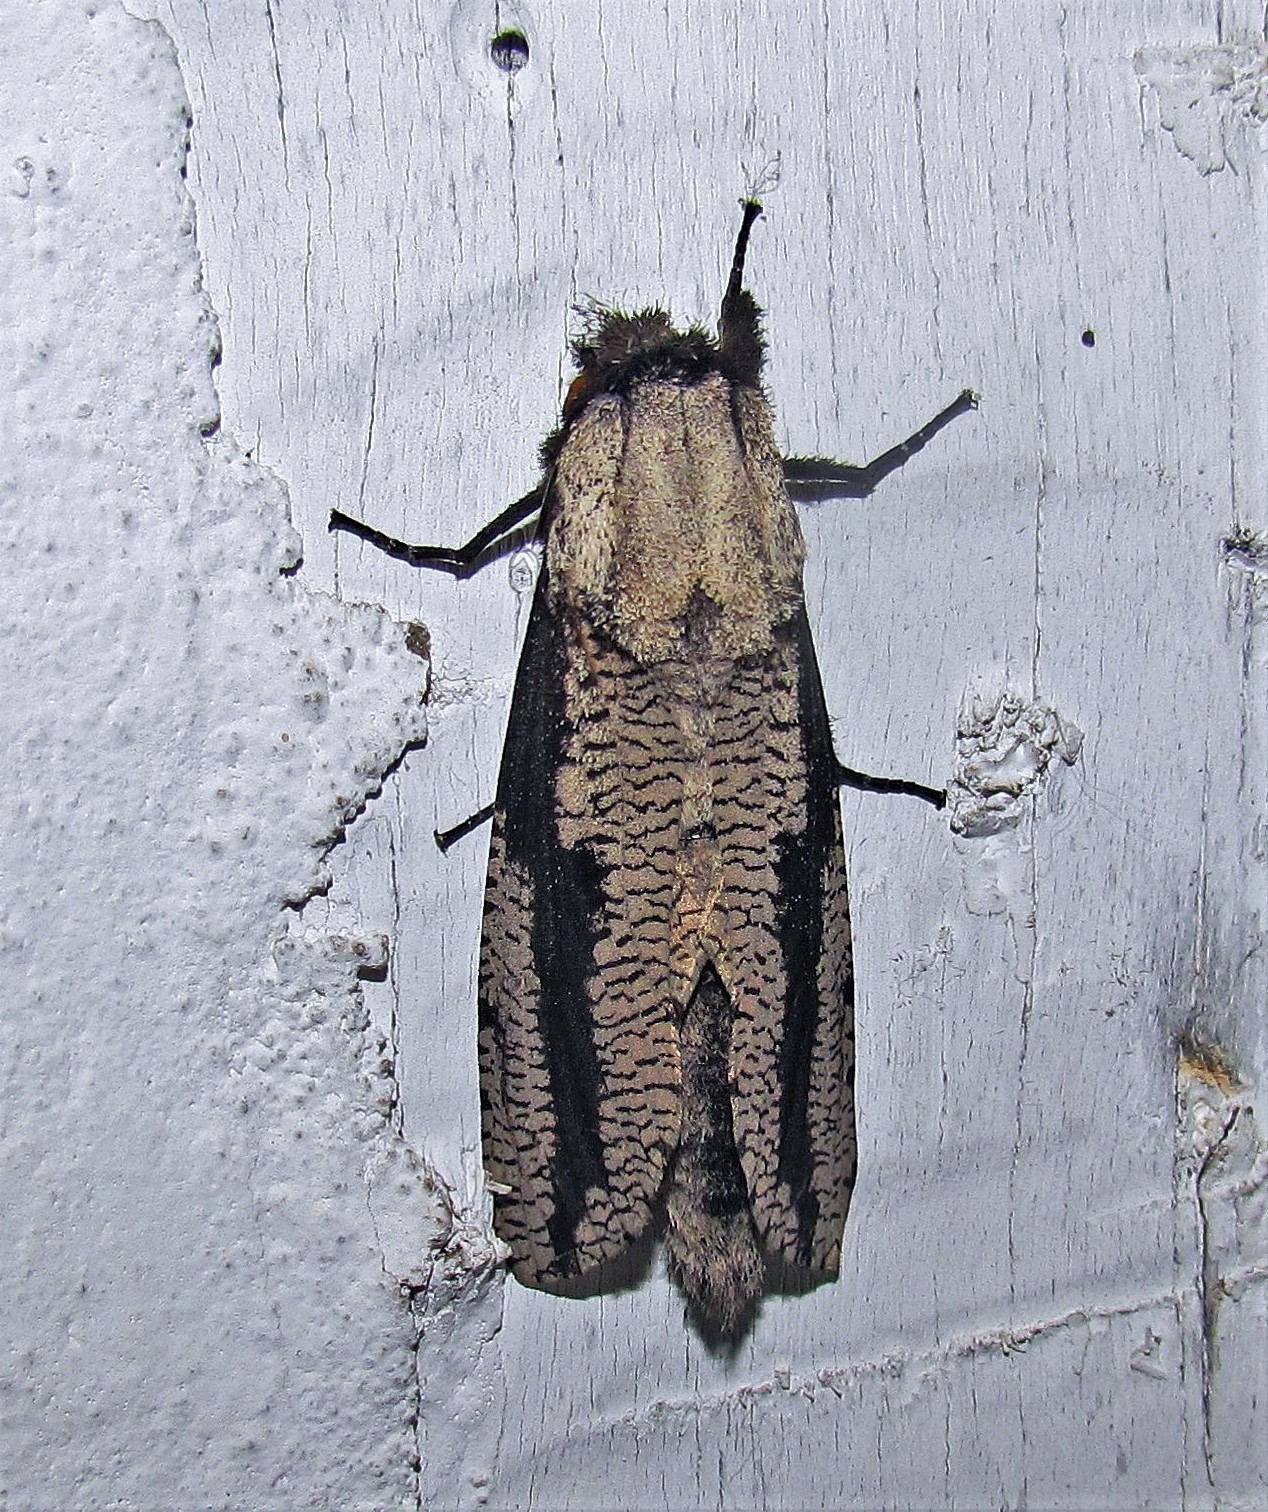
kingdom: Animalia
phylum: Arthropoda
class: Insecta
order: Lepidoptera
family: Cossidae
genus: Morpheis
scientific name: Morpheis pyracmon
